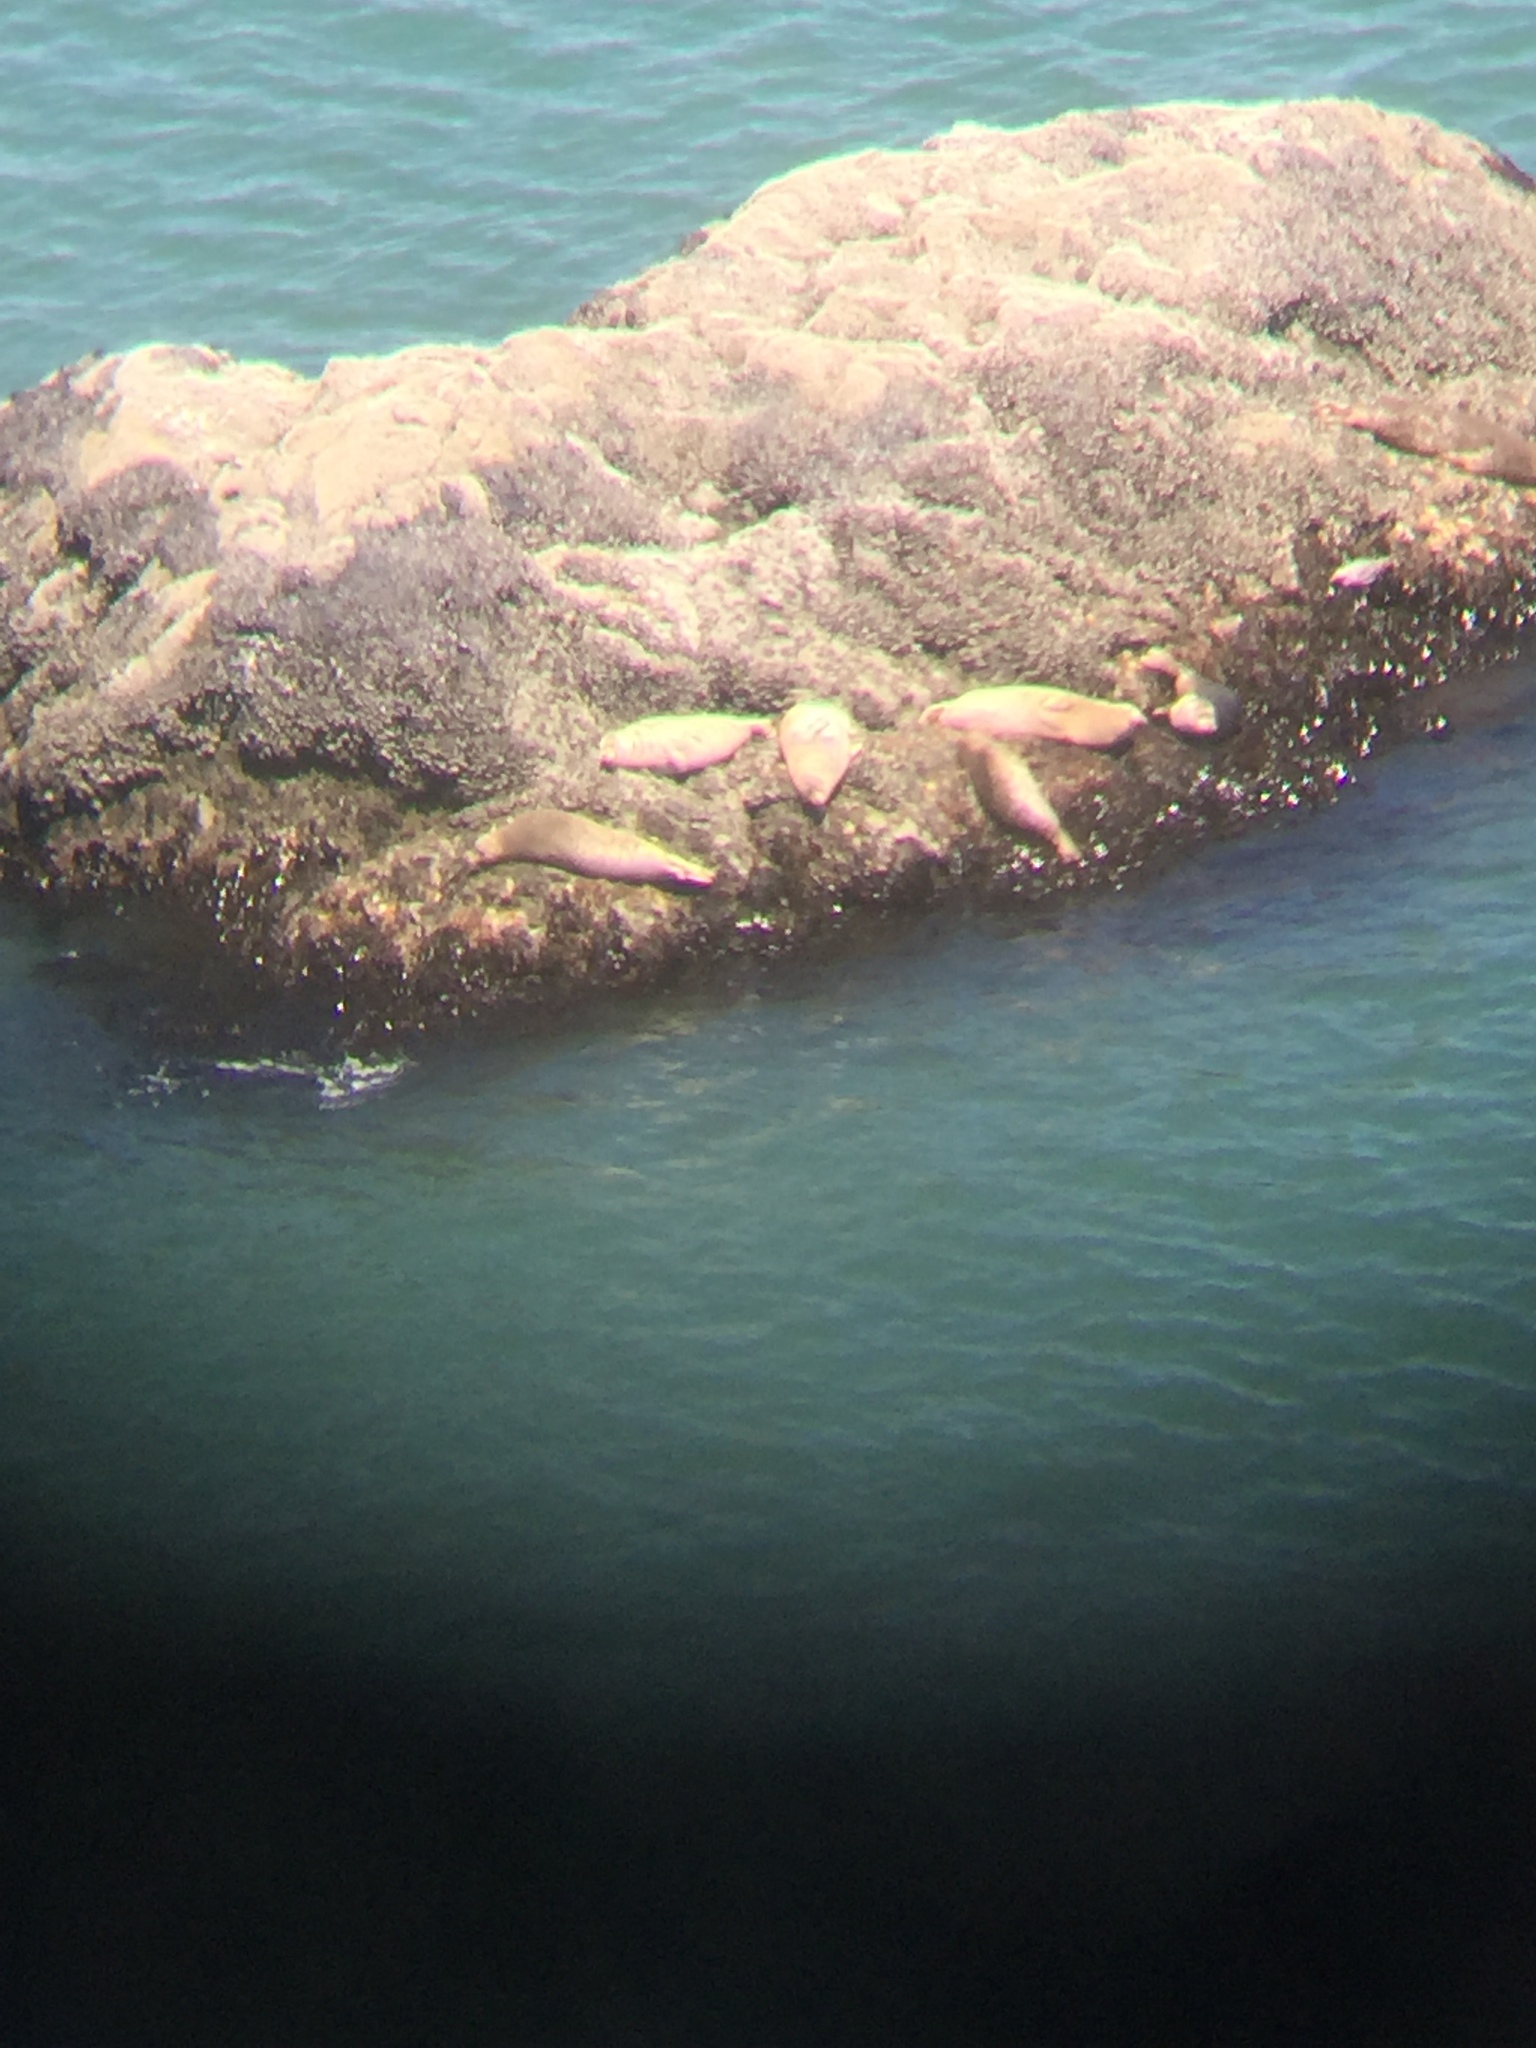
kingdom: Animalia
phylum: Chordata
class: Mammalia
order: Carnivora
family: Phocidae
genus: Phoca
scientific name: Phoca vitulina
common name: Harbor seal
